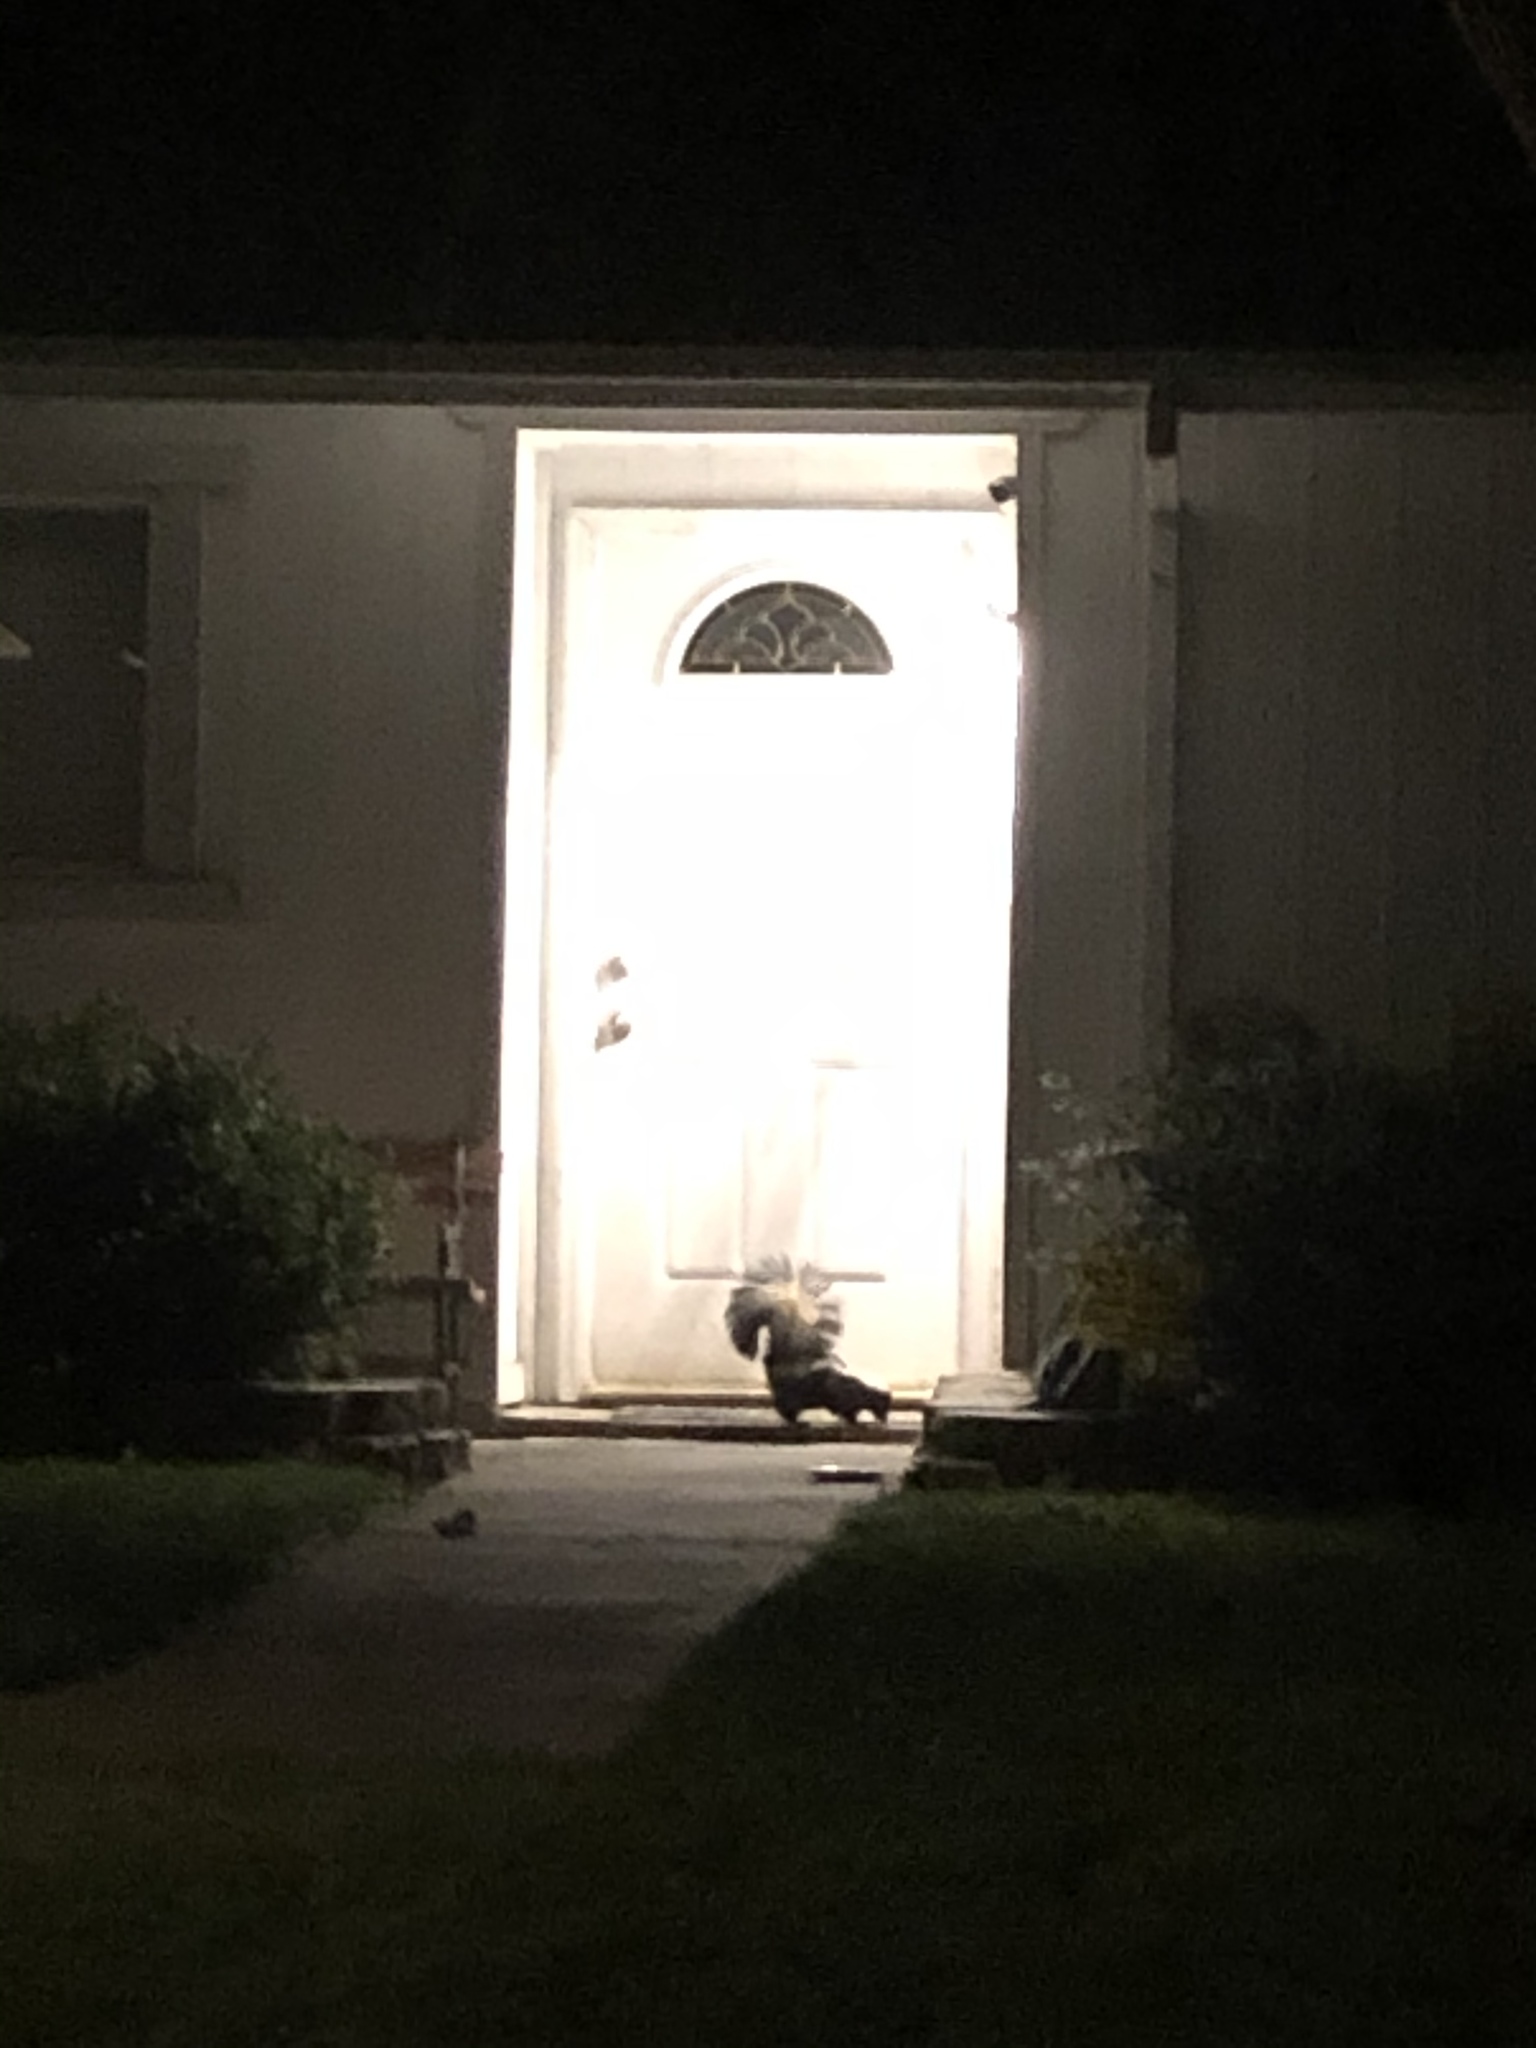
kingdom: Animalia
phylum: Chordata
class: Mammalia
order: Carnivora
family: Mephitidae
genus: Mephitis
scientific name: Mephitis mephitis
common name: Striped skunk
